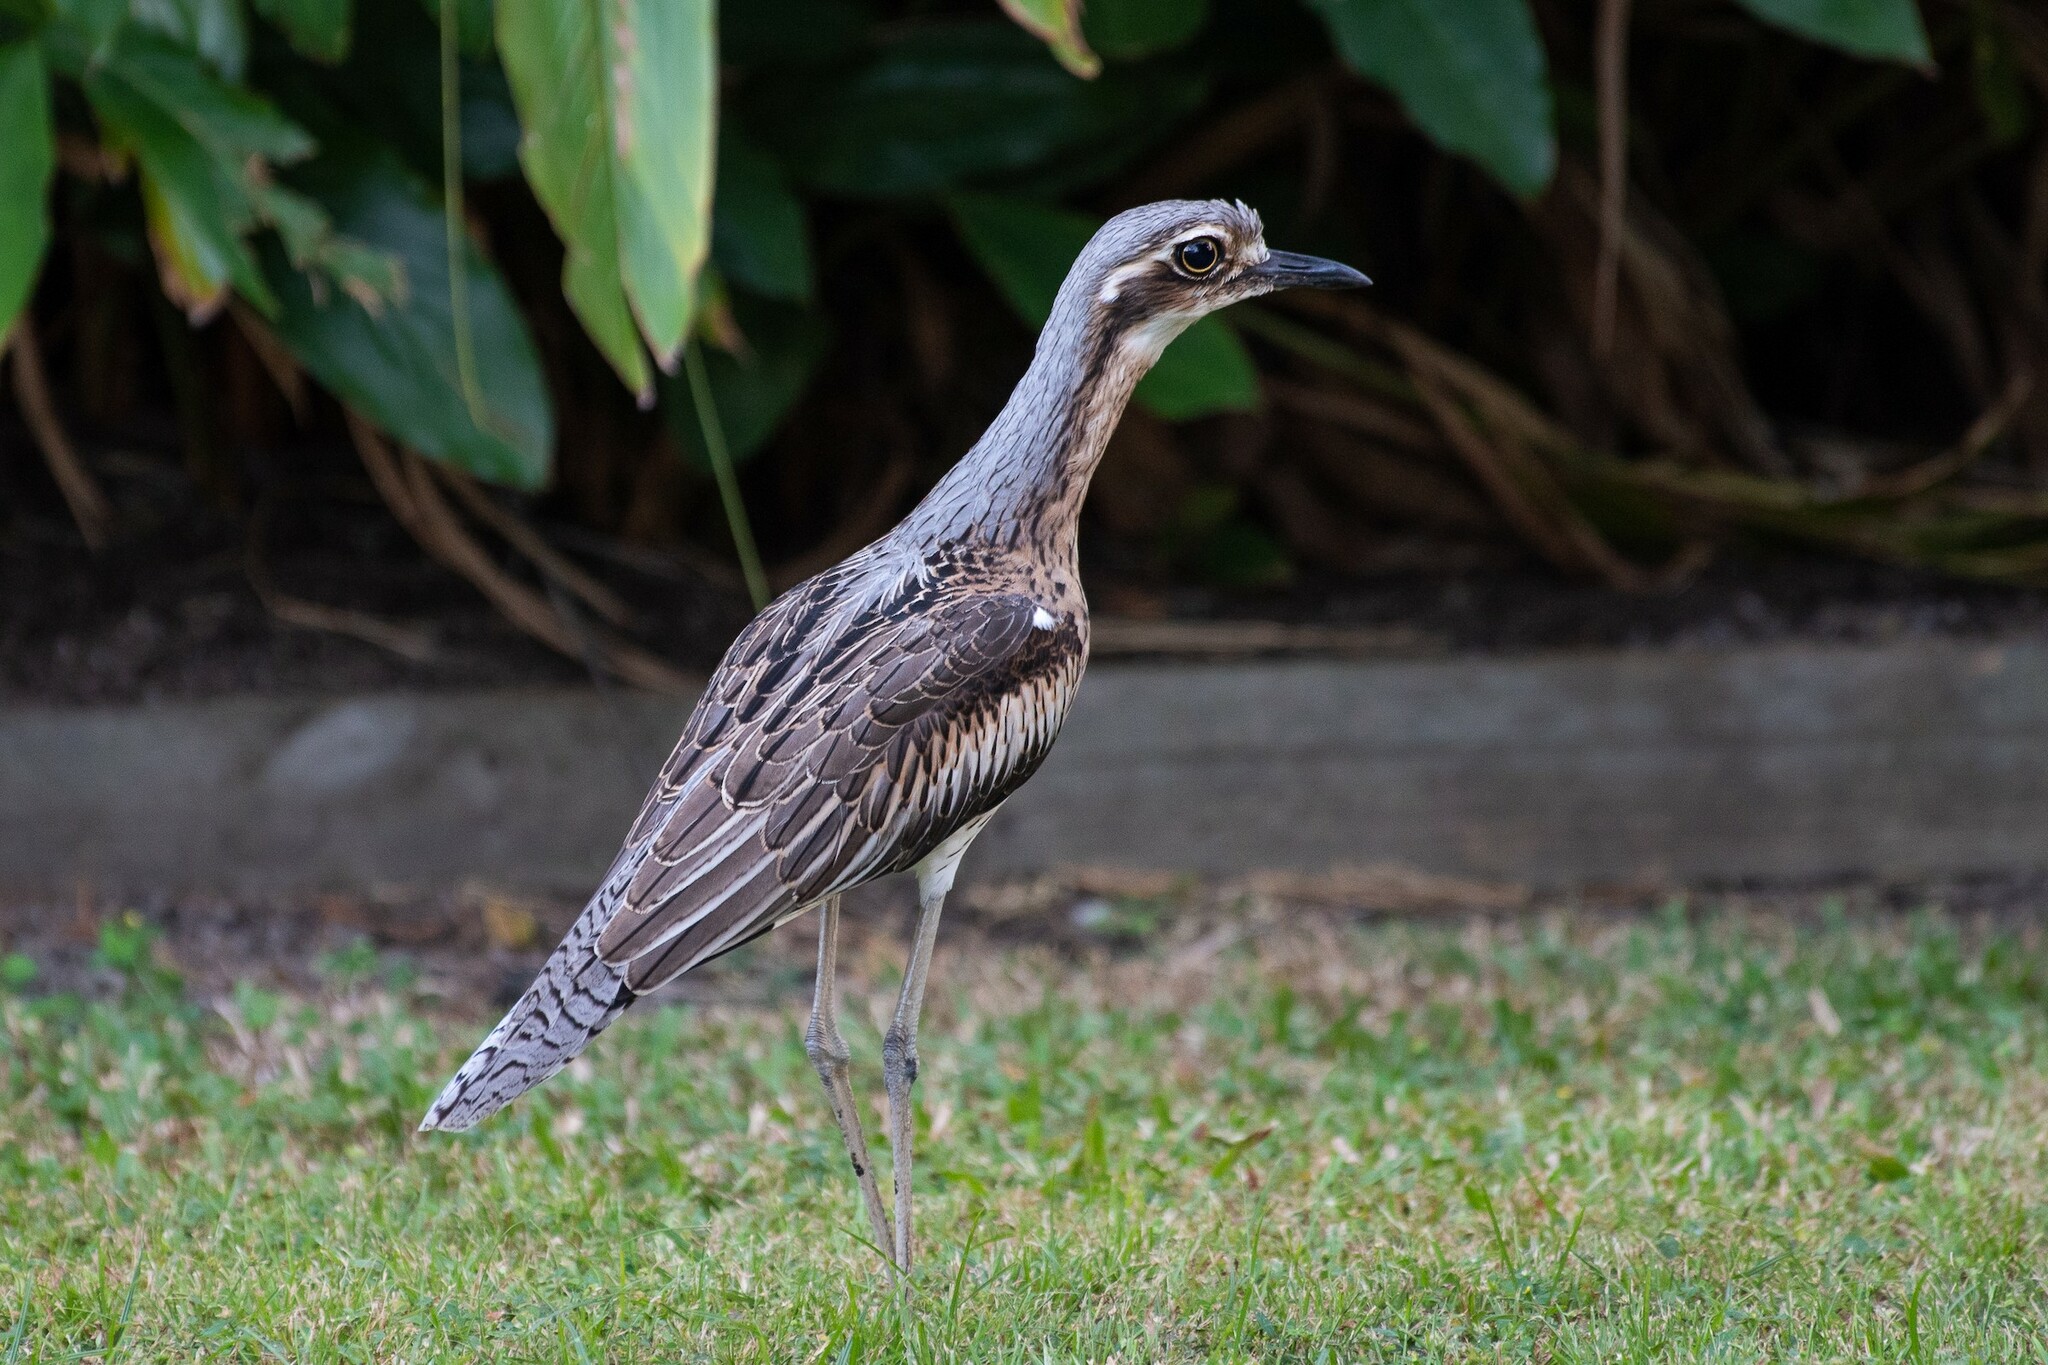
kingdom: Animalia
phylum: Chordata
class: Aves
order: Charadriiformes
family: Burhinidae
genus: Burhinus
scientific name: Burhinus grallarius
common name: Bush stone-curlew
